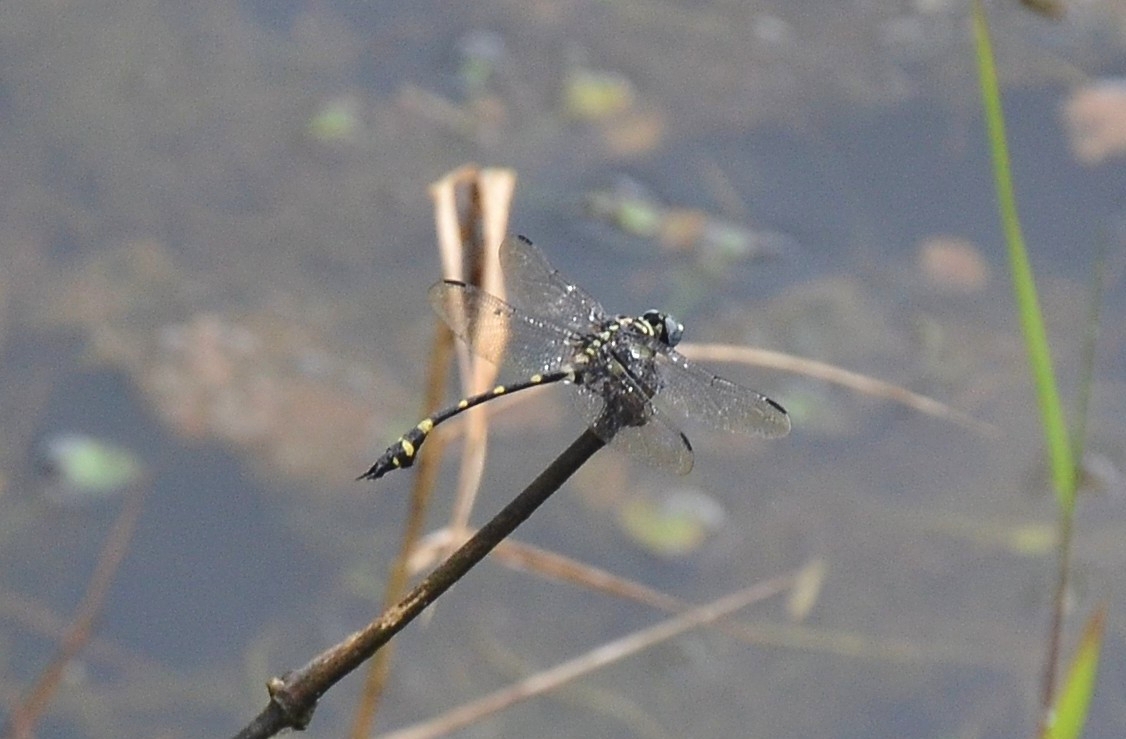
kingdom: Animalia
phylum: Arthropoda
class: Insecta
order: Odonata
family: Gomphidae
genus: Ictinogomphus
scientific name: Ictinogomphus rapax
